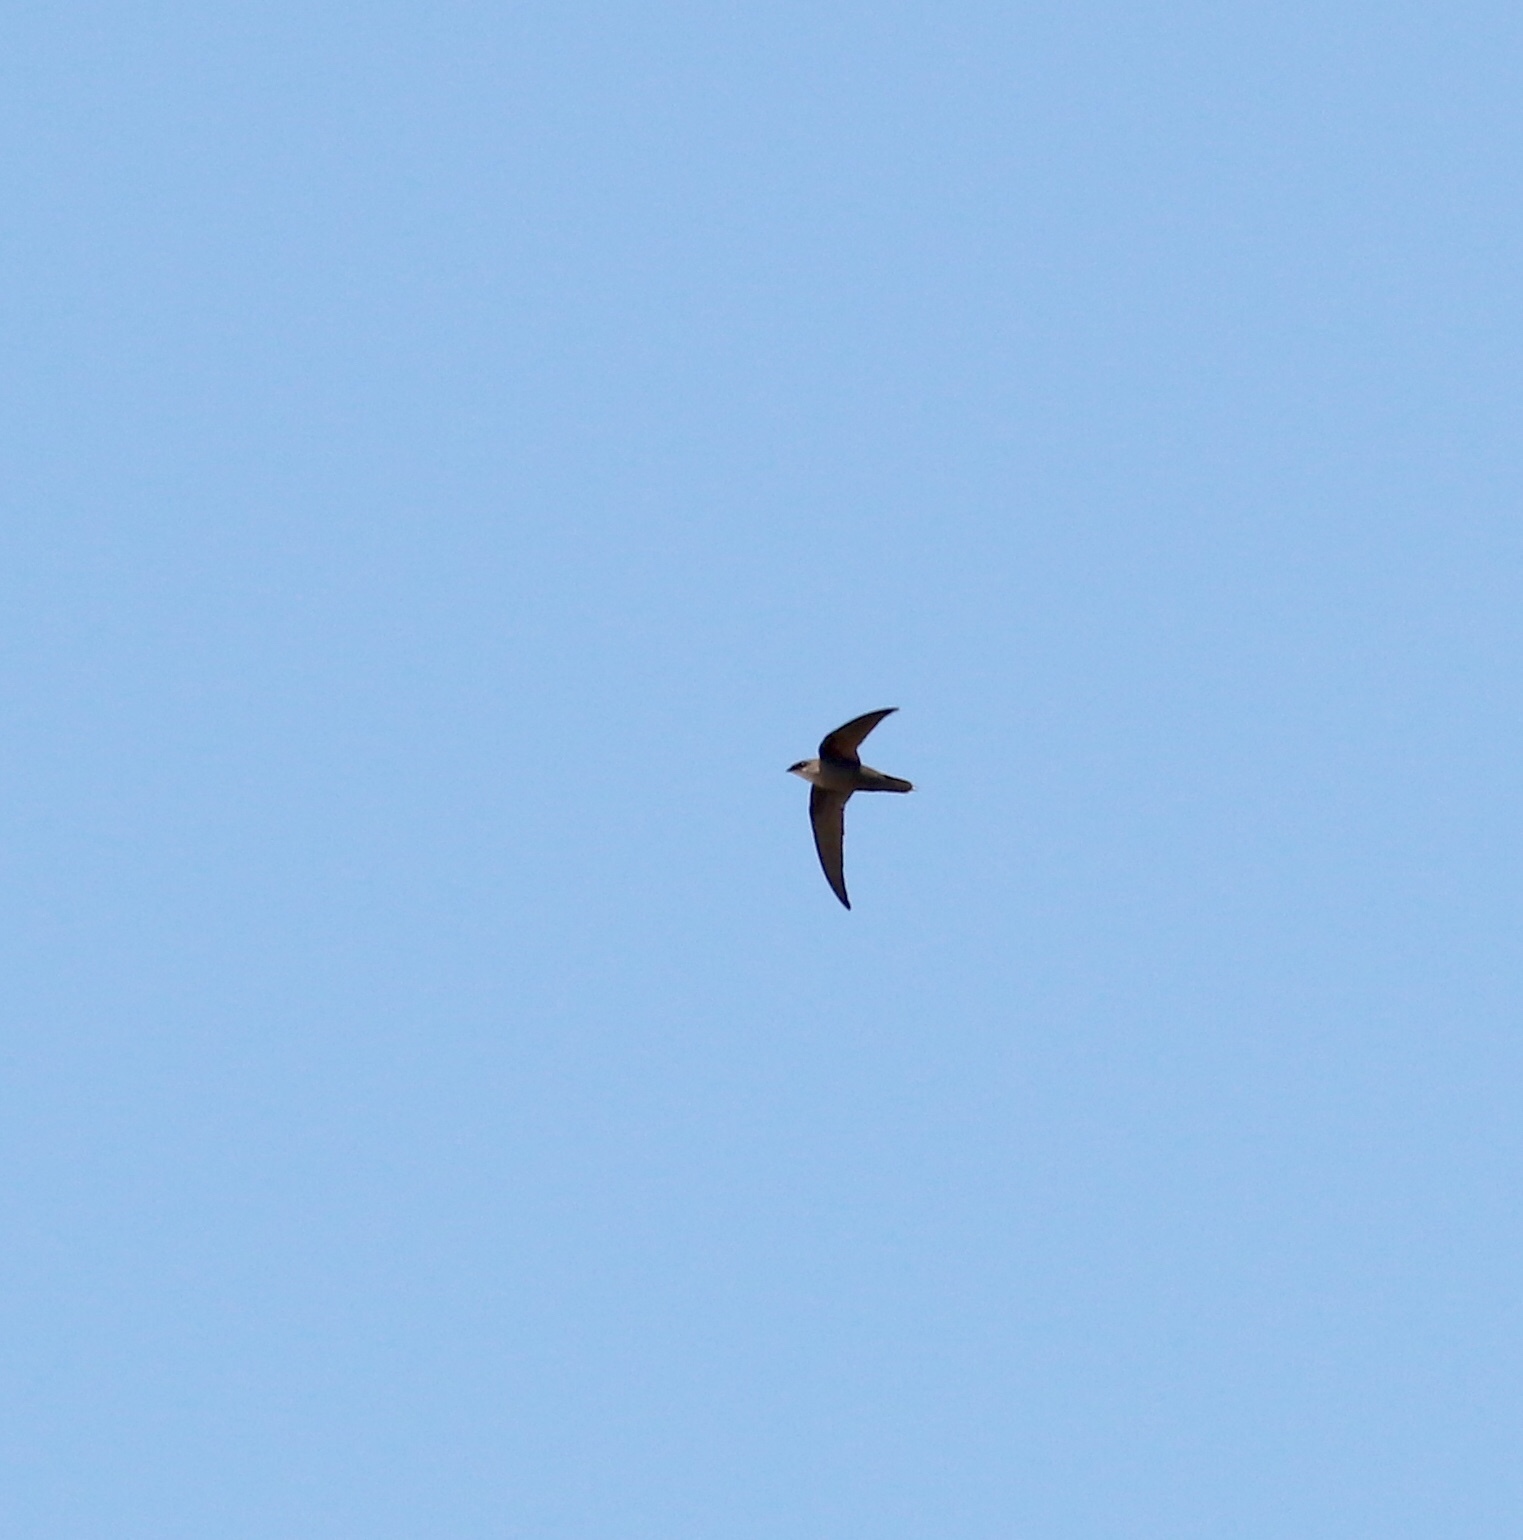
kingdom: Animalia
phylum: Chordata
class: Aves
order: Apodiformes
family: Apodidae
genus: Chaetura
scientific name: Chaetura pelagica
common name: Chimney swift
